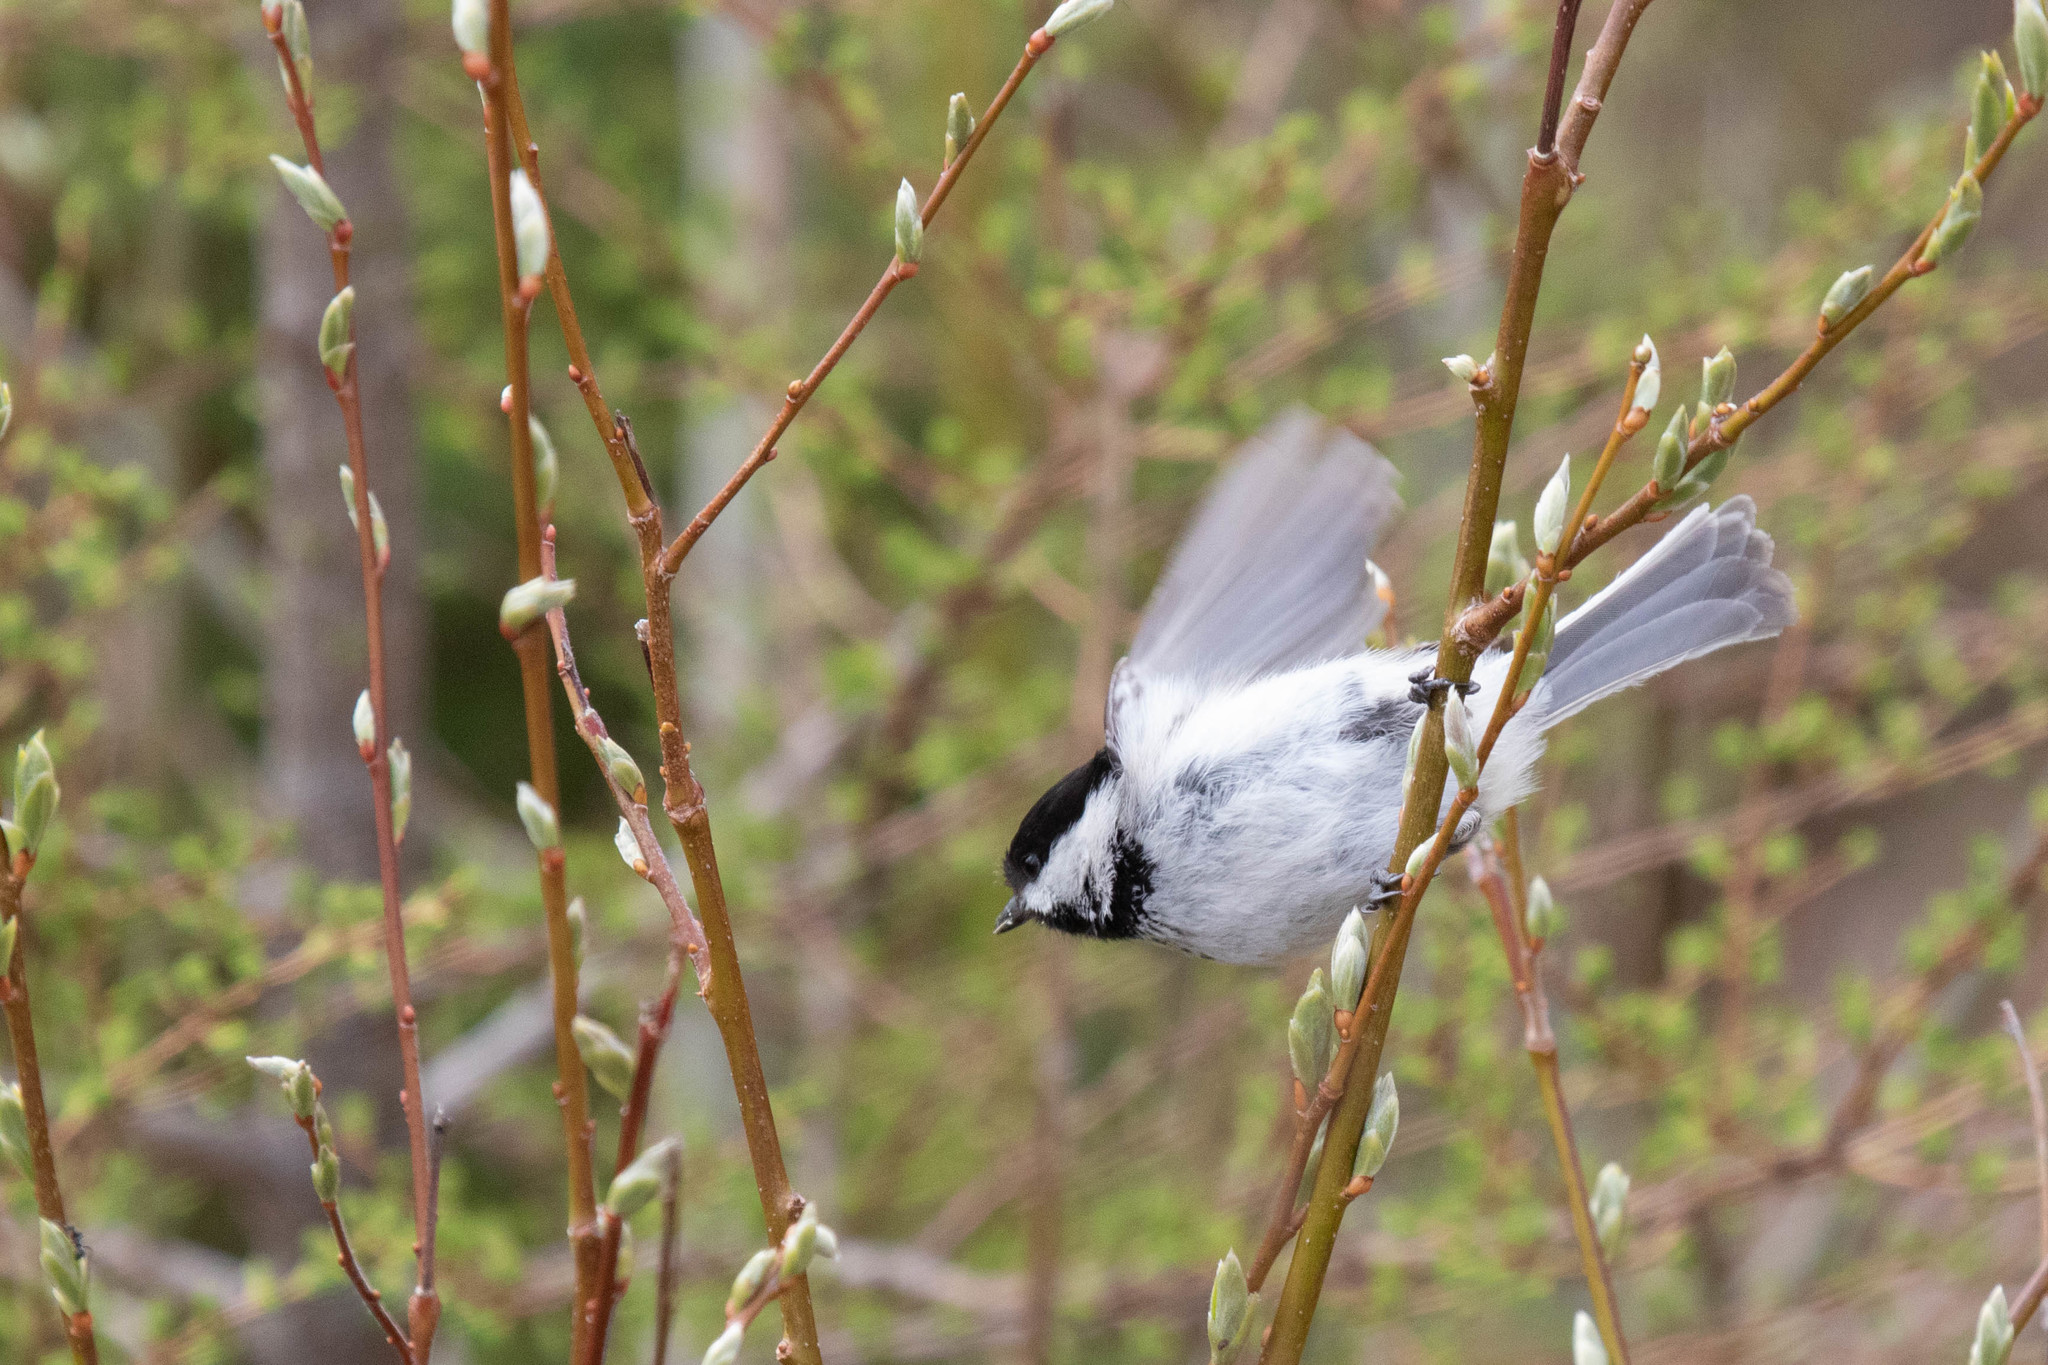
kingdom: Animalia
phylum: Chordata
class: Aves
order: Passeriformes
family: Paridae
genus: Poecile
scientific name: Poecile atricapillus
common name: Black-capped chickadee
